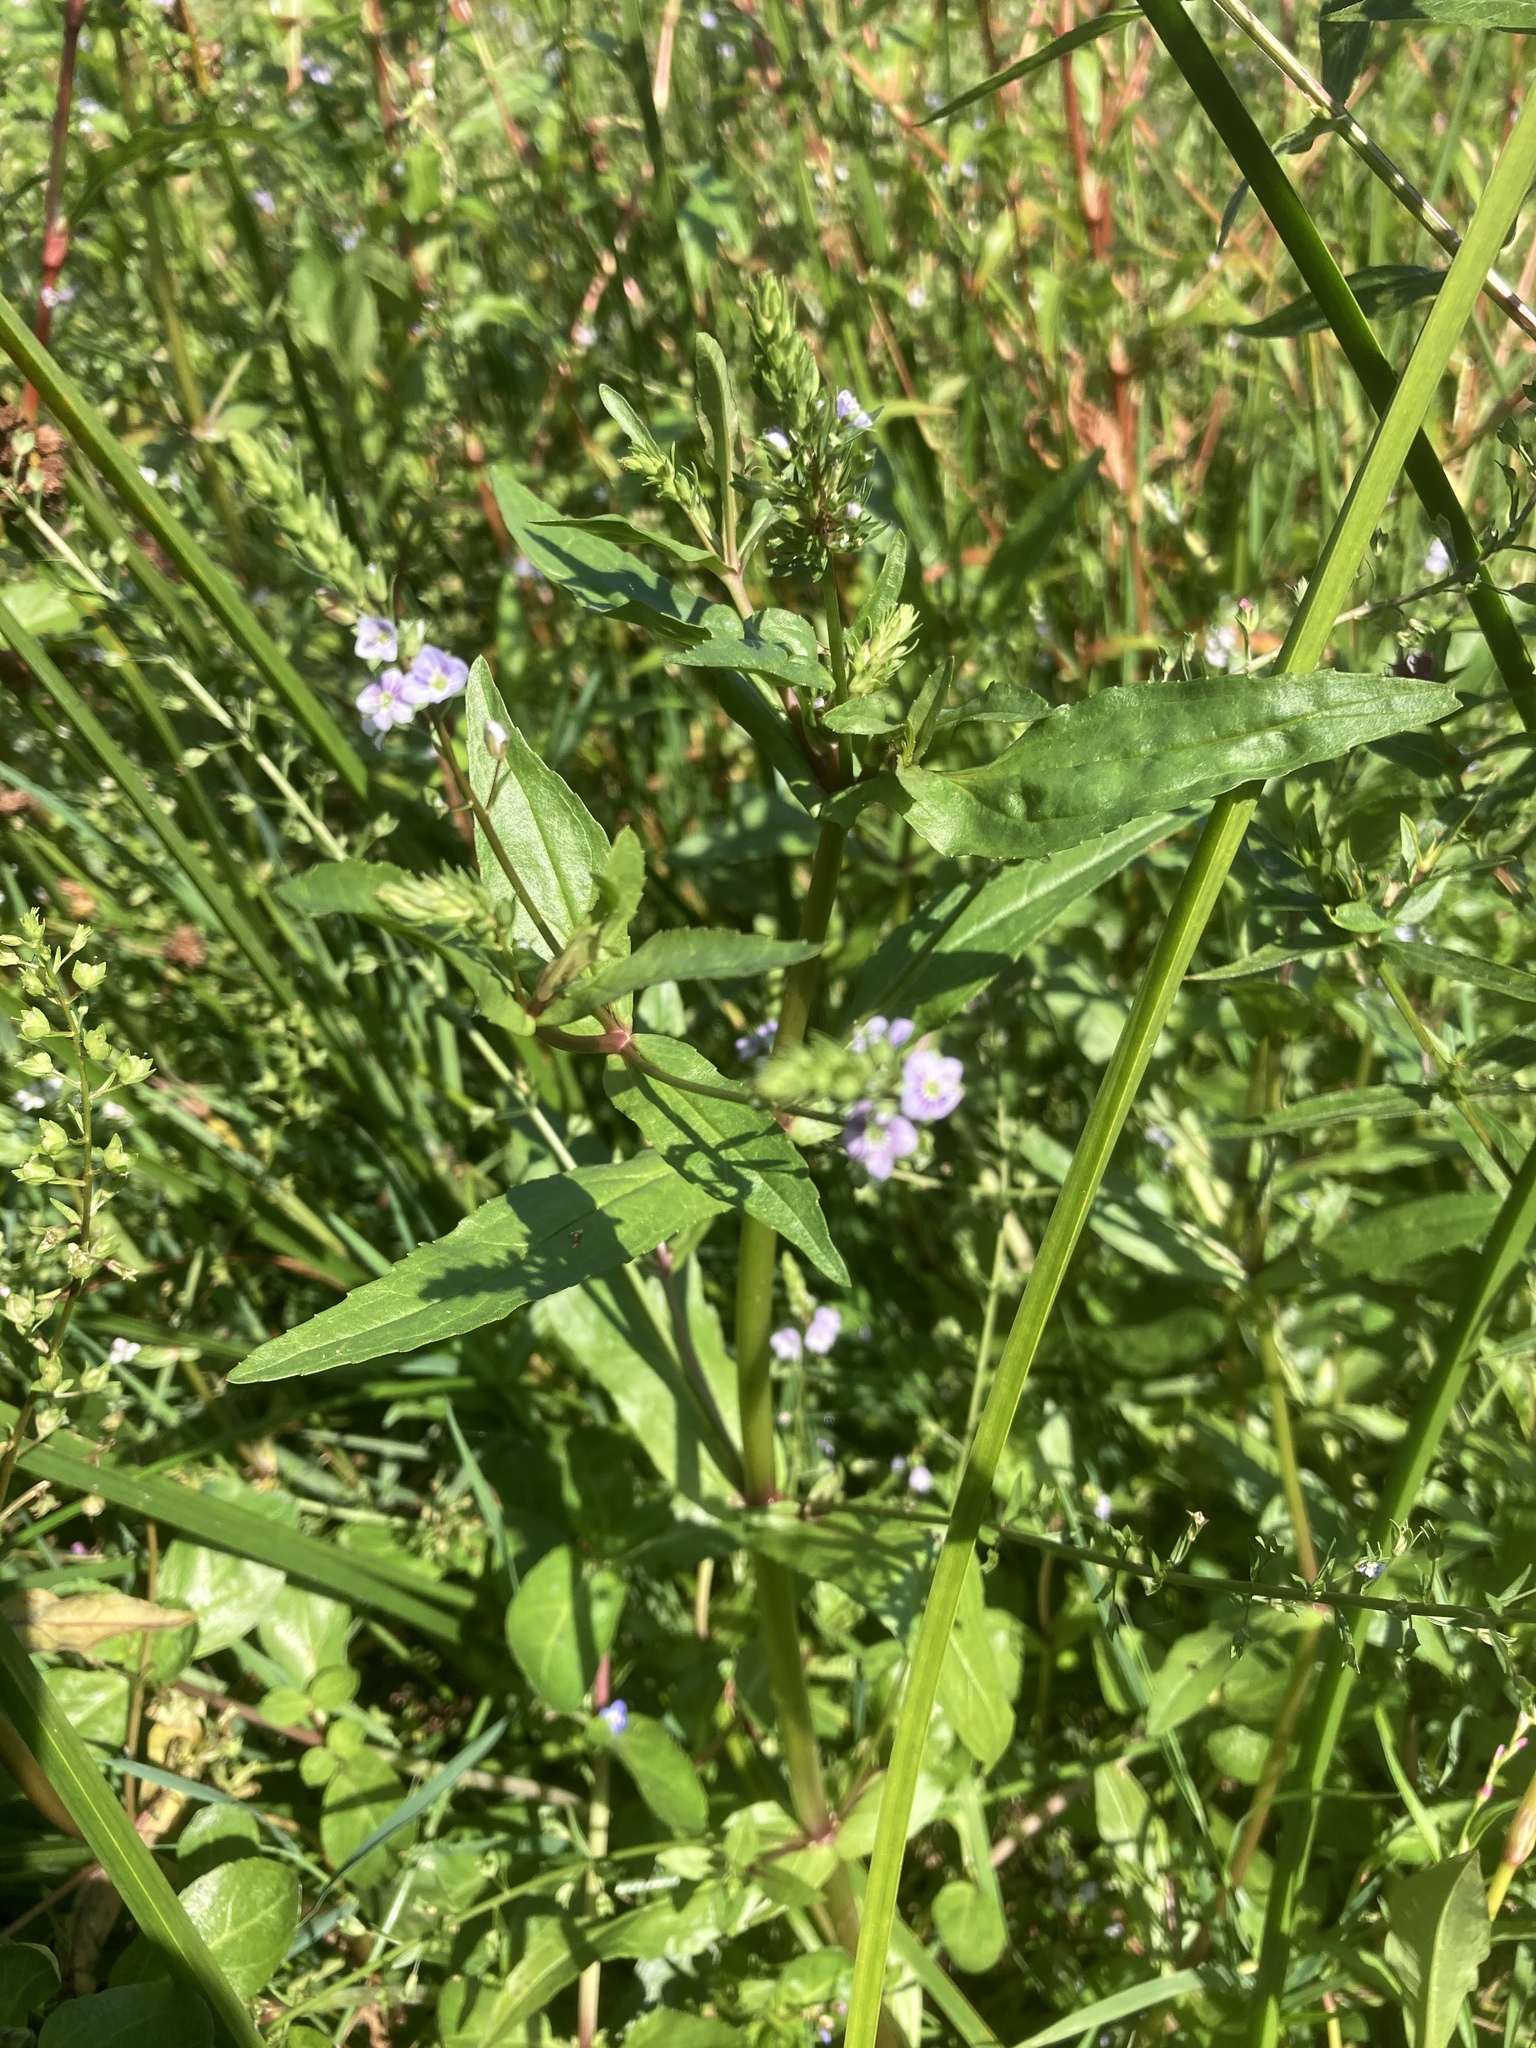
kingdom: Plantae
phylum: Tracheophyta
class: Magnoliopsida
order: Lamiales
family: Plantaginaceae
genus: Veronica
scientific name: Veronica anagallis-aquatica
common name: Water speedwell
